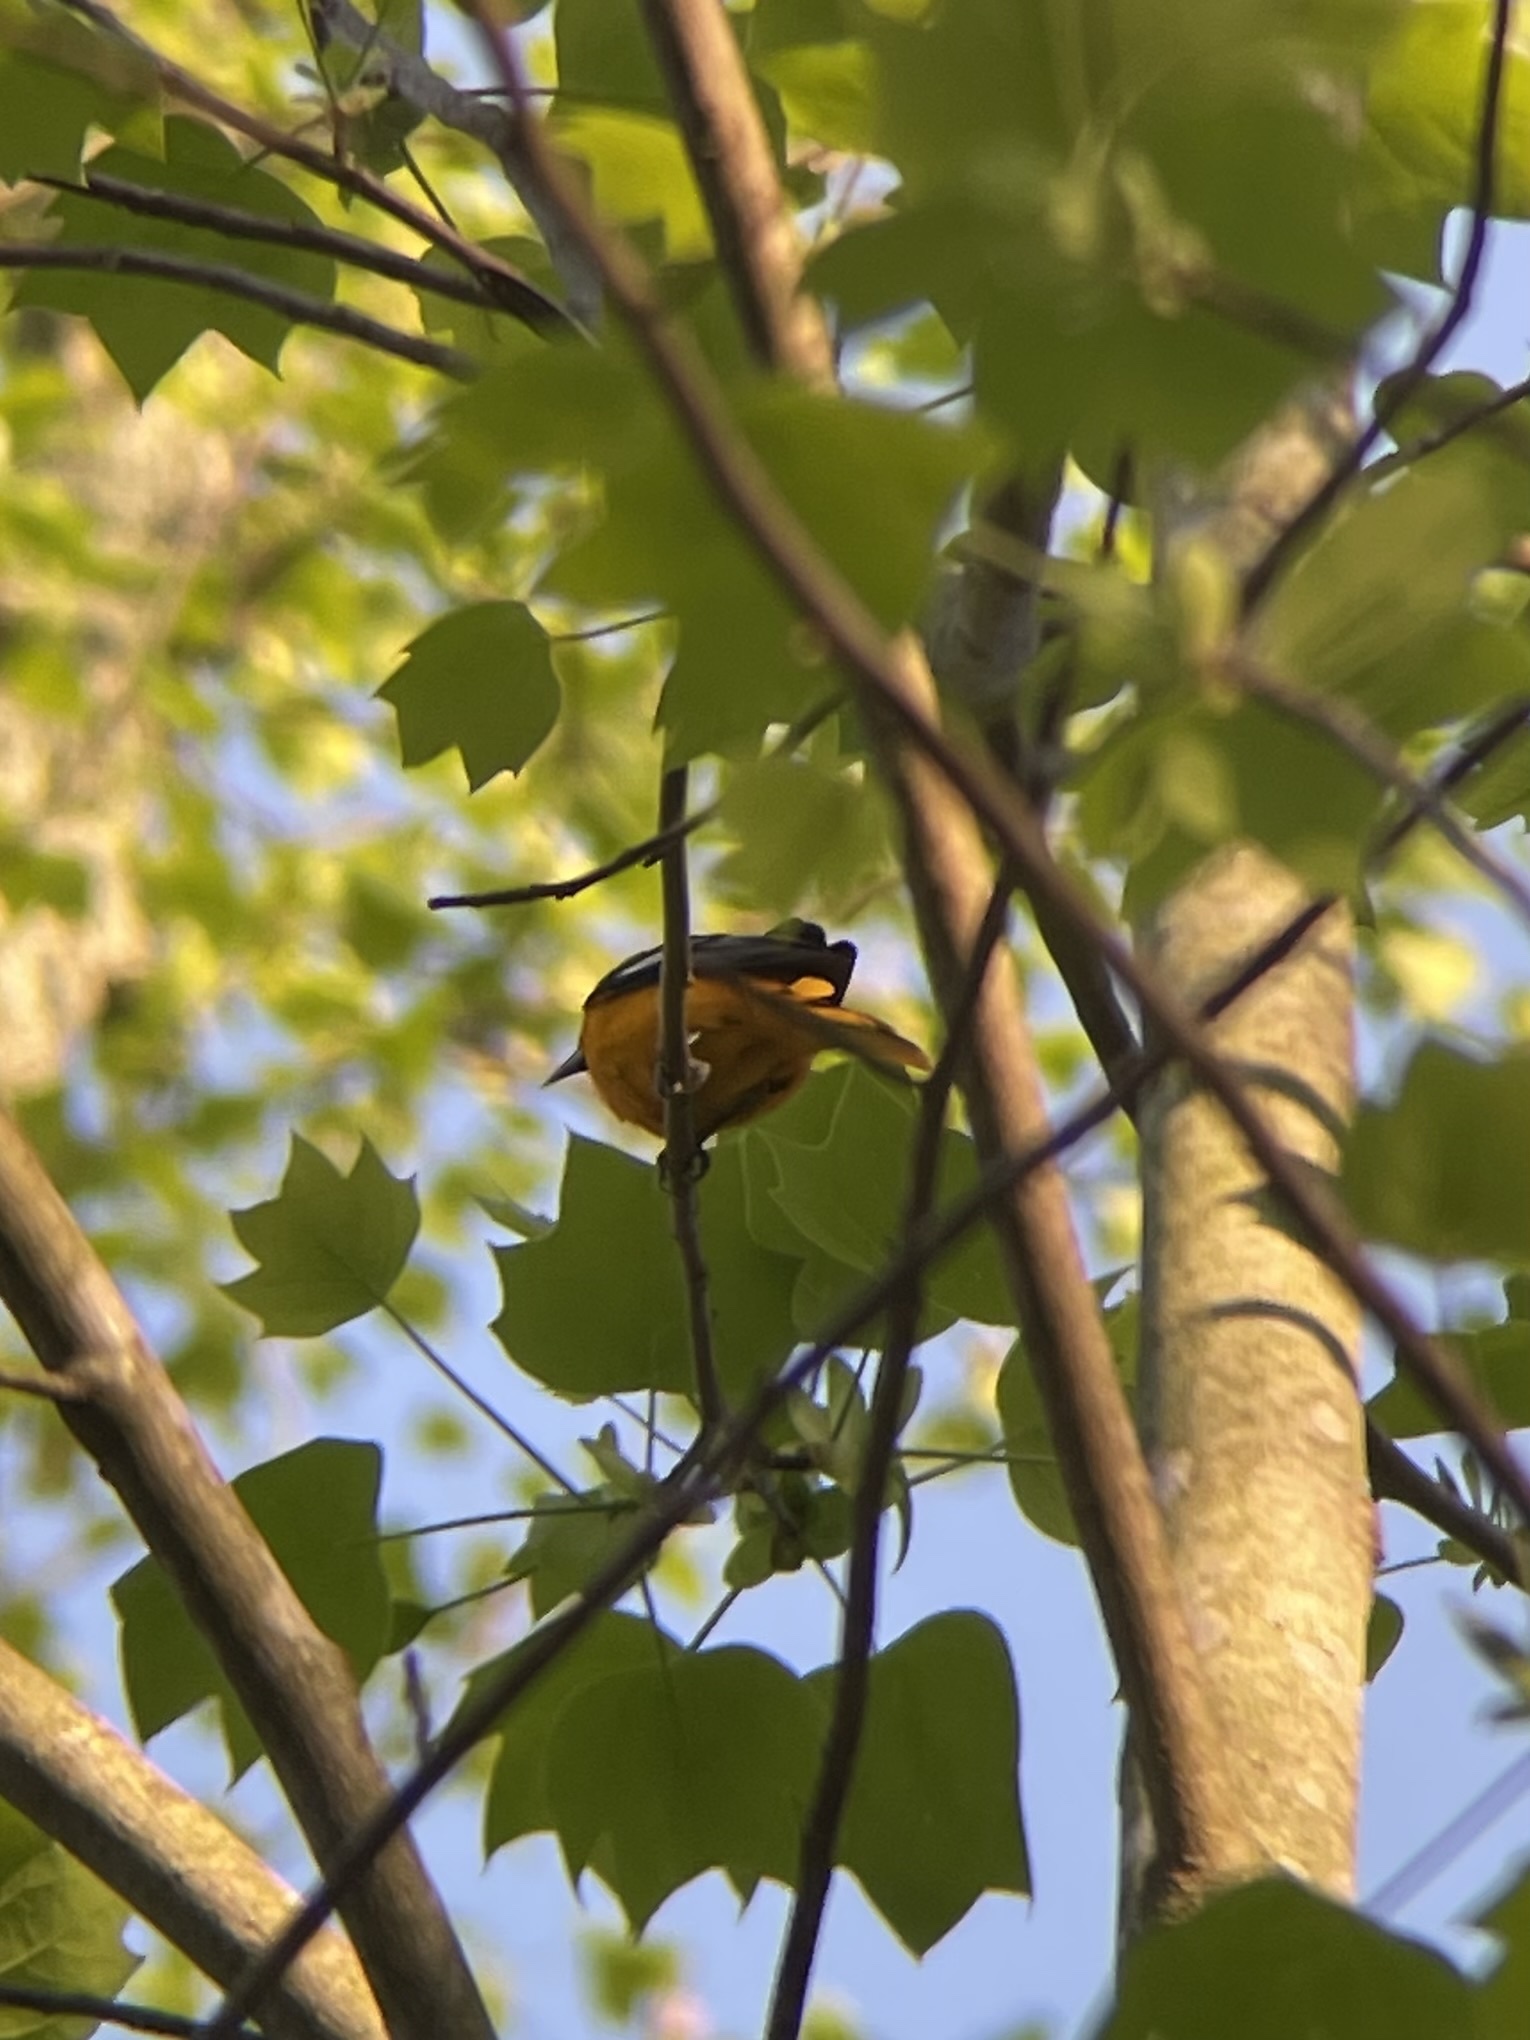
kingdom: Animalia
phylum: Chordata
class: Aves
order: Passeriformes
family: Icteridae
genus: Icterus
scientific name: Icterus galbula
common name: Baltimore oriole
